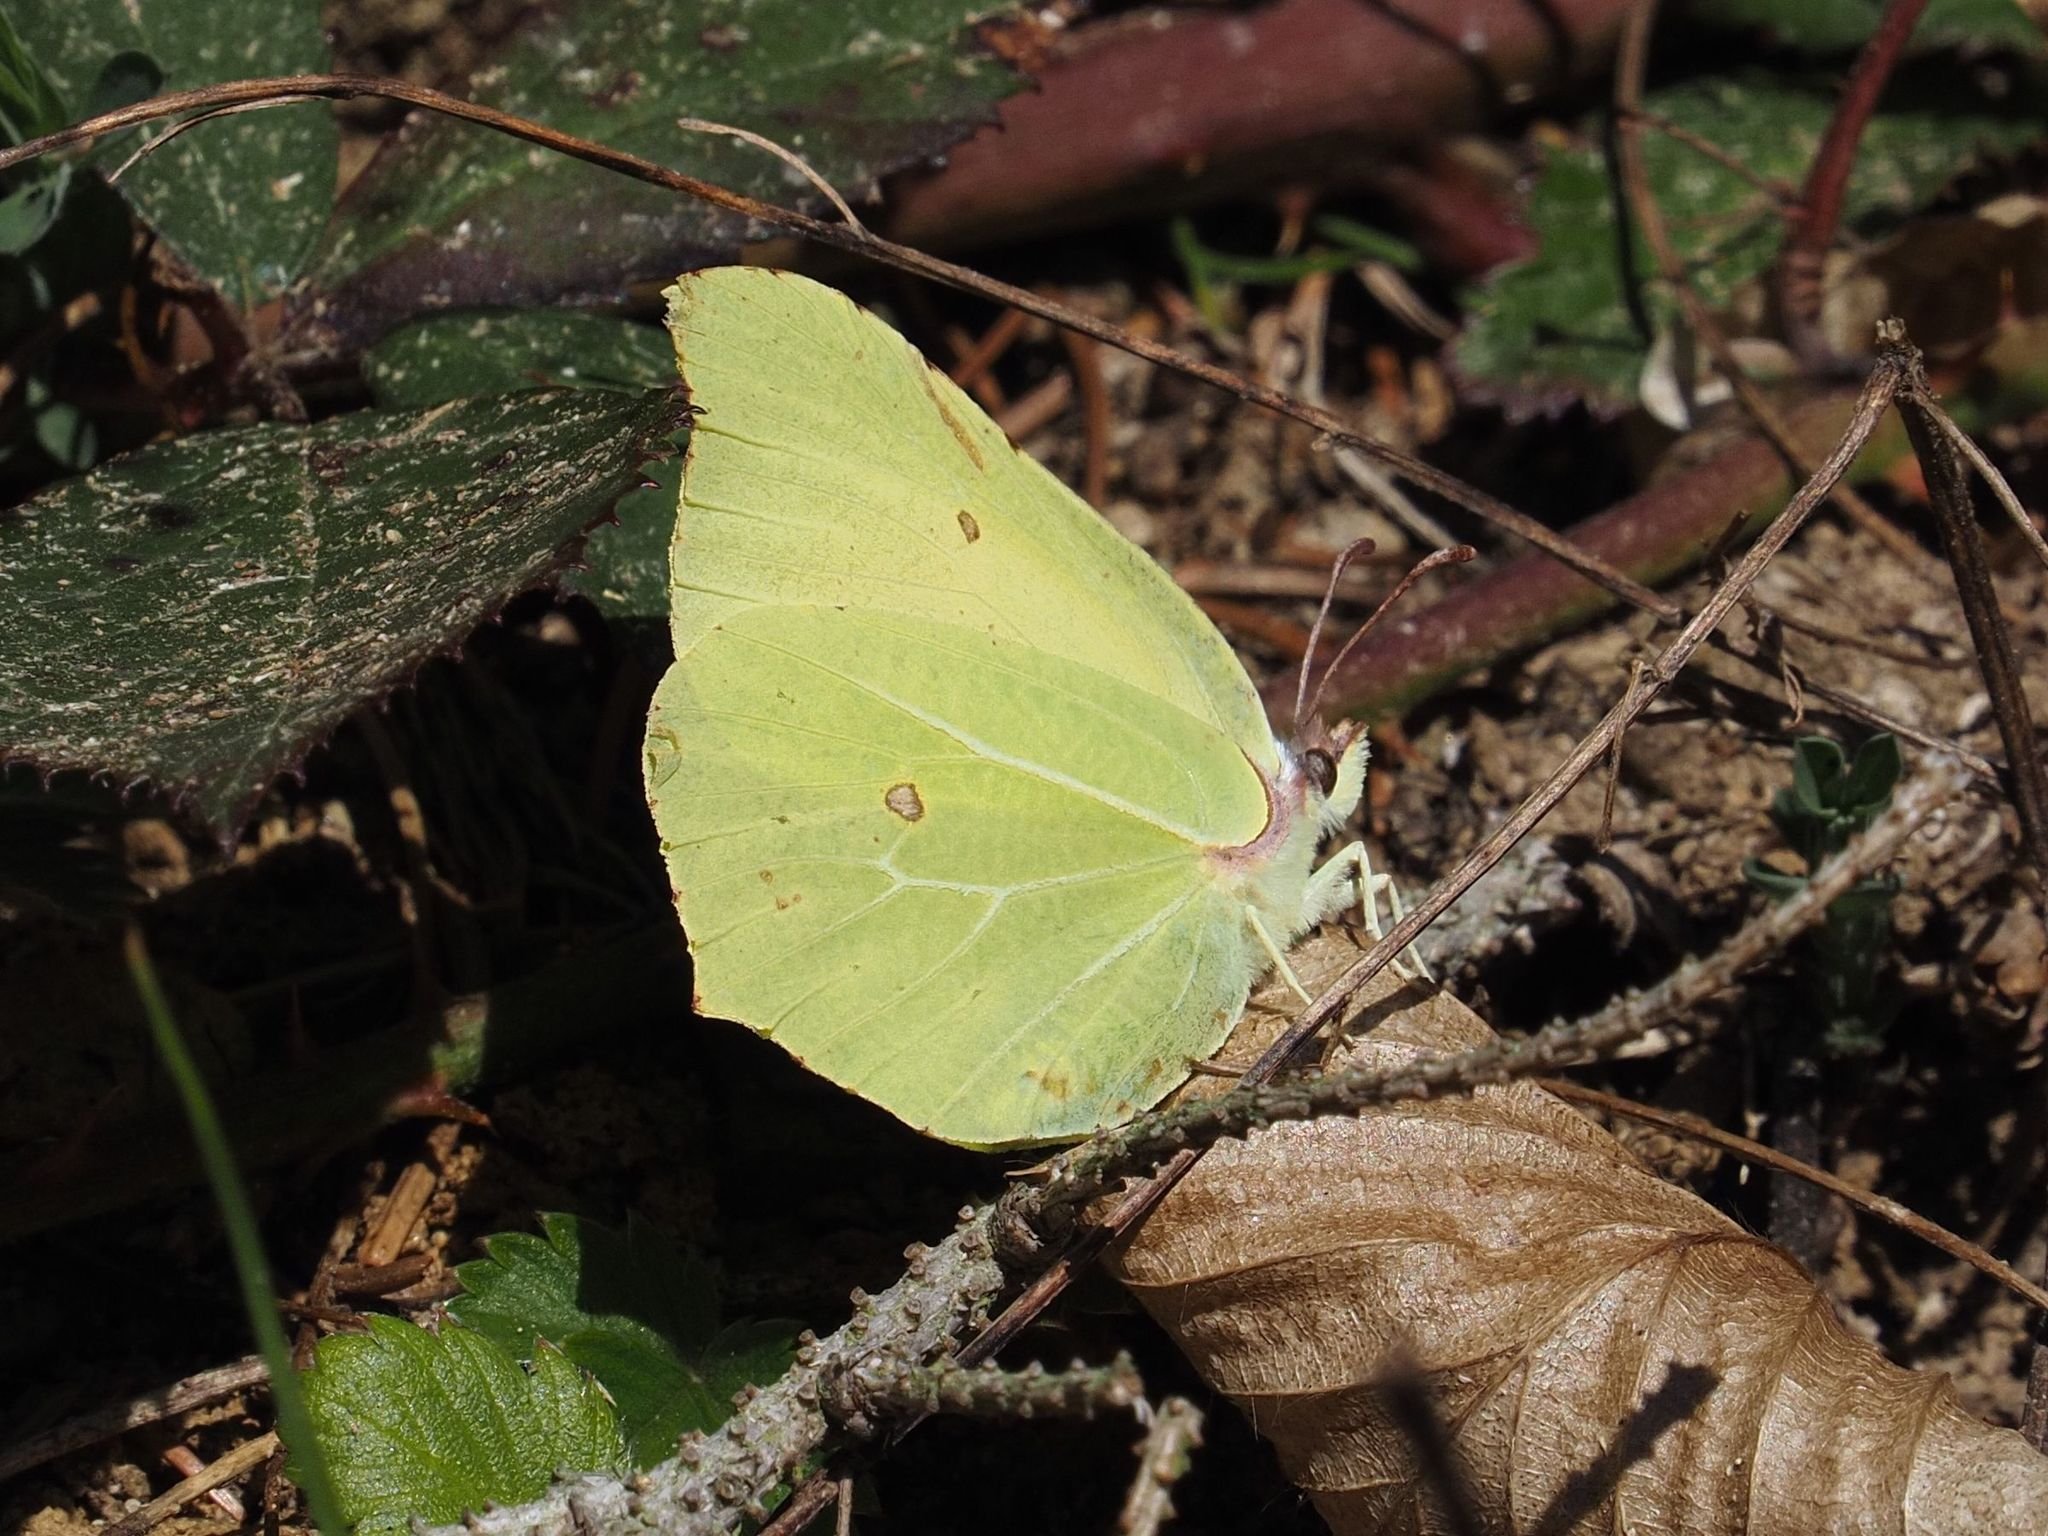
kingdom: Animalia
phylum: Arthropoda
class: Insecta
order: Lepidoptera
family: Pieridae
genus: Gonepteryx
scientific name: Gonepteryx rhamni
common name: Brimstone
